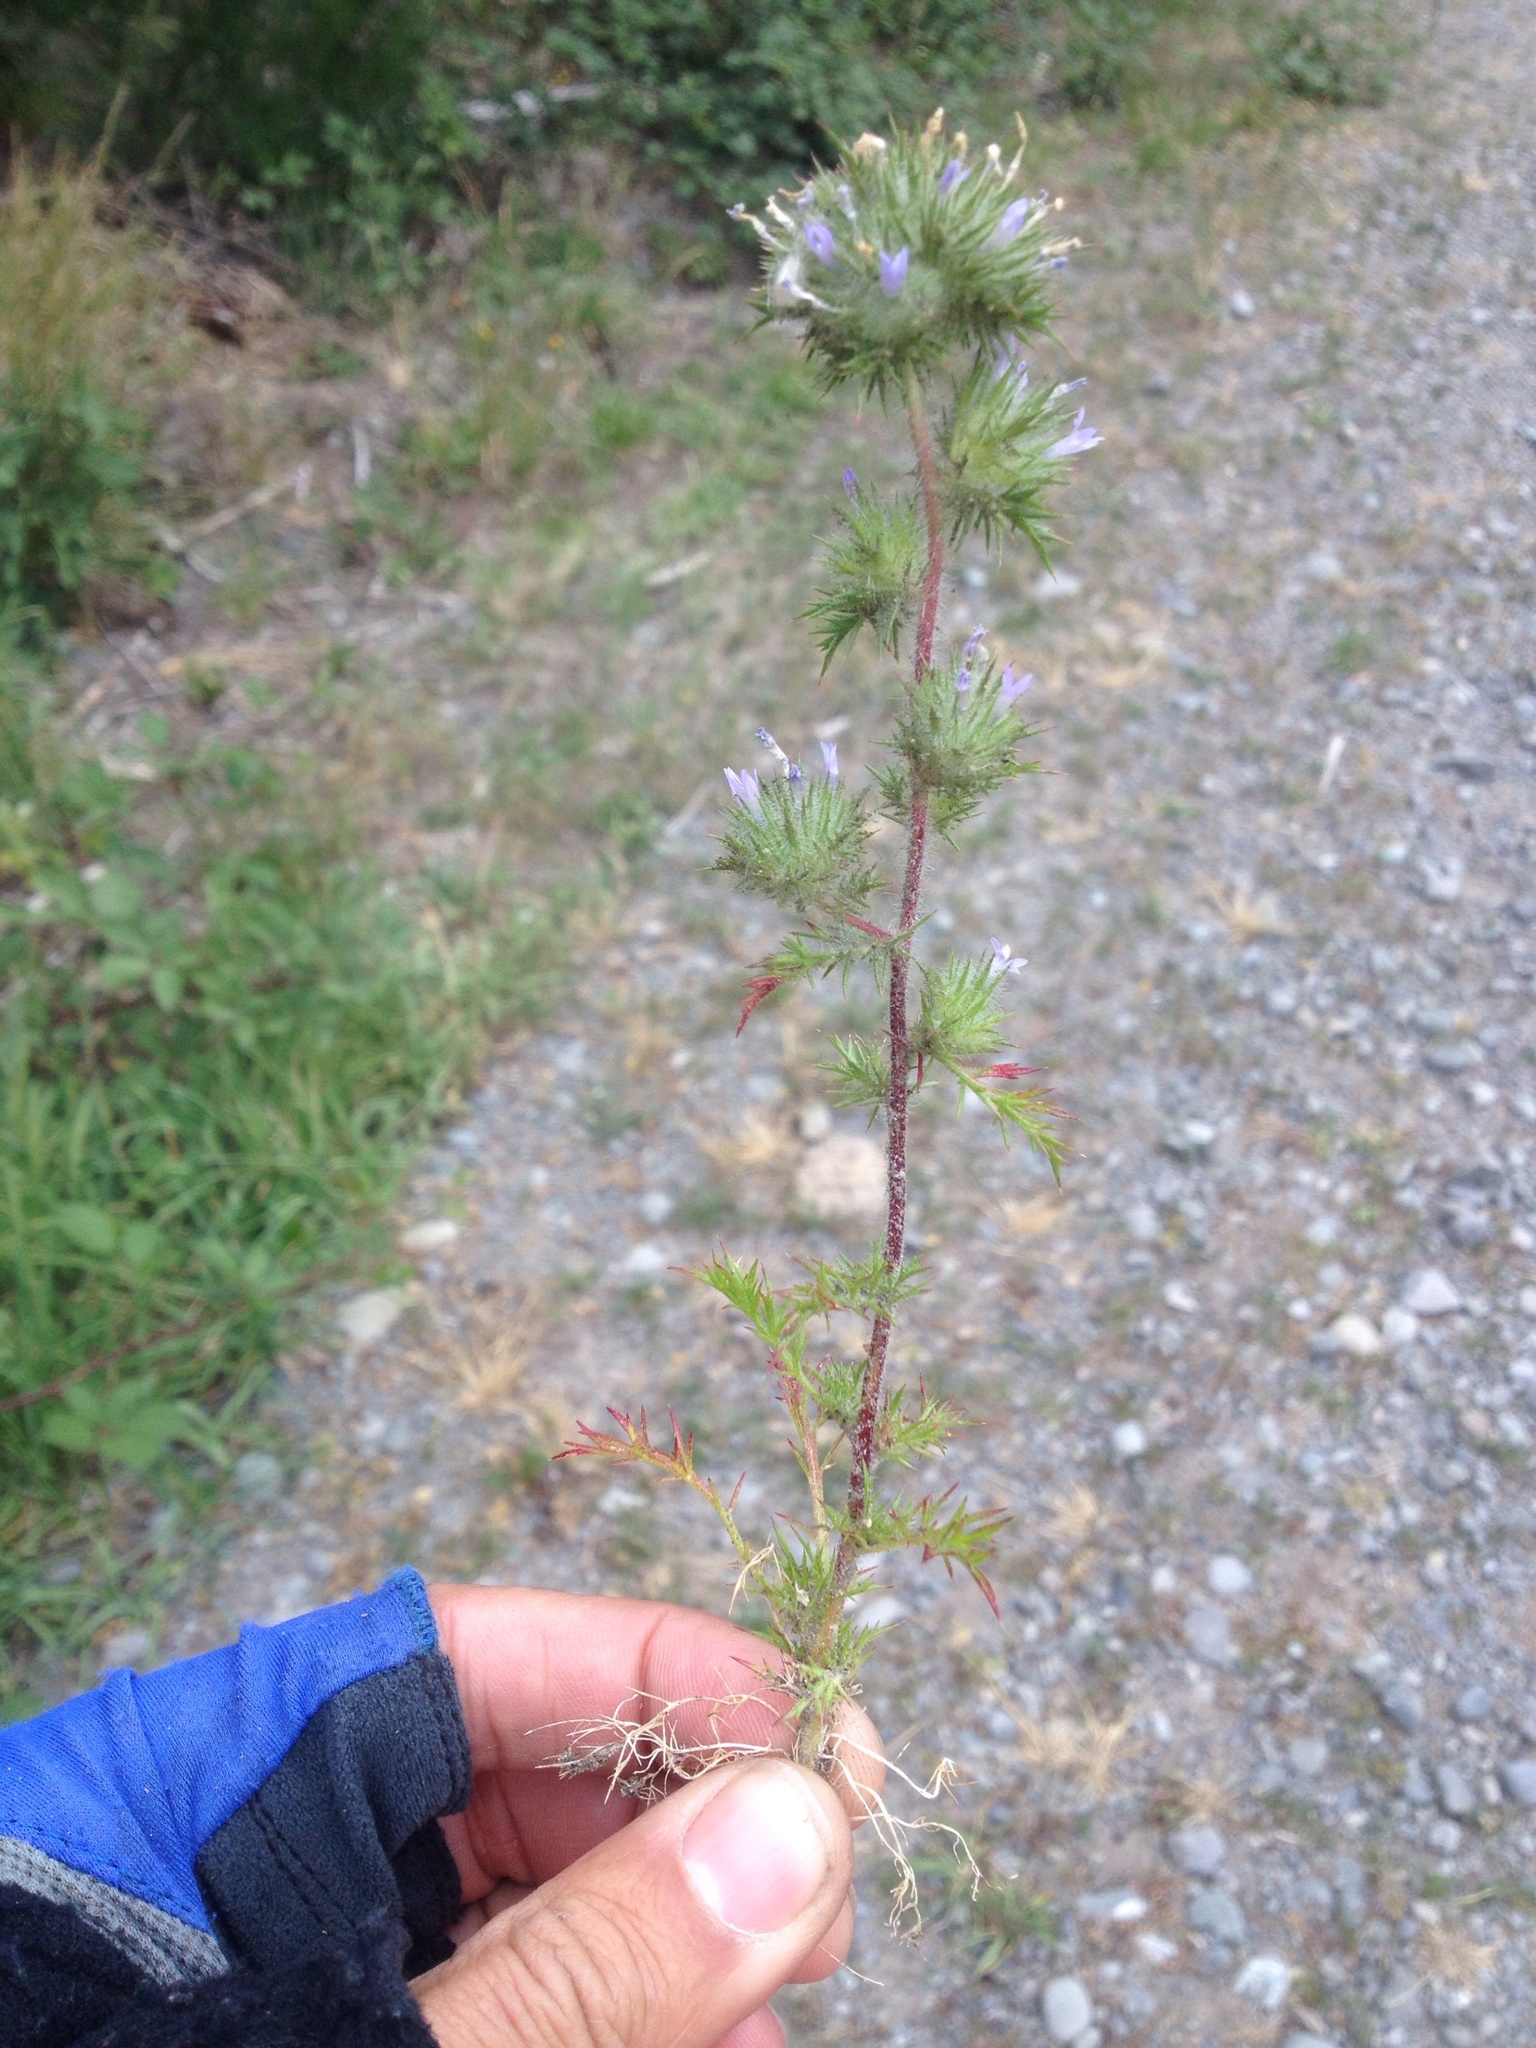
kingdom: Plantae
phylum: Tracheophyta
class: Magnoliopsida
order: Ericales
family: Polemoniaceae
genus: Navarretia
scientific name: Navarretia squarrosa
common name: Skunkweed
